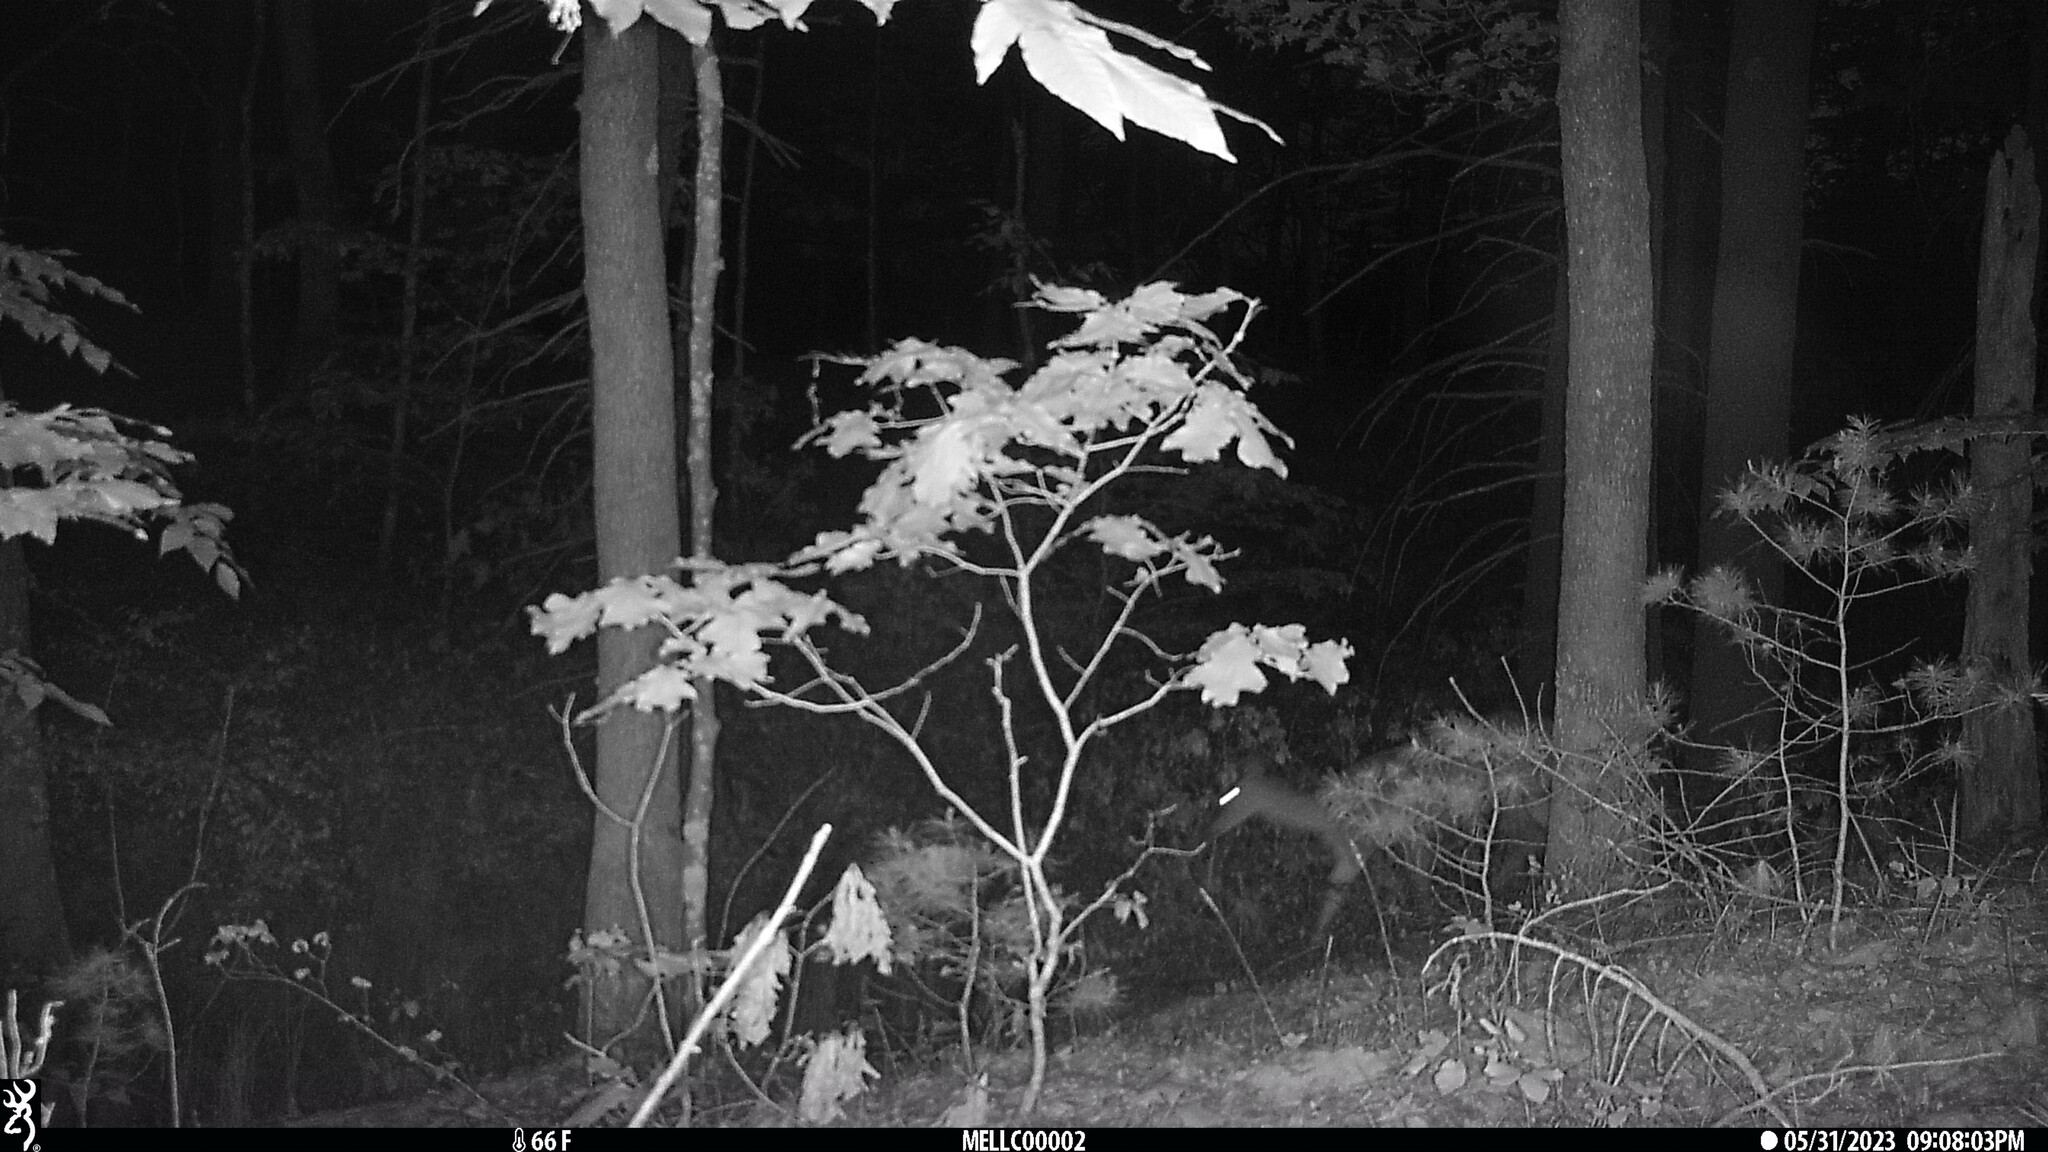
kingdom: Animalia
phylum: Chordata
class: Mammalia
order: Artiodactyla
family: Cervidae
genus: Odocoileus
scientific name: Odocoileus virginianus
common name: White-tailed deer
